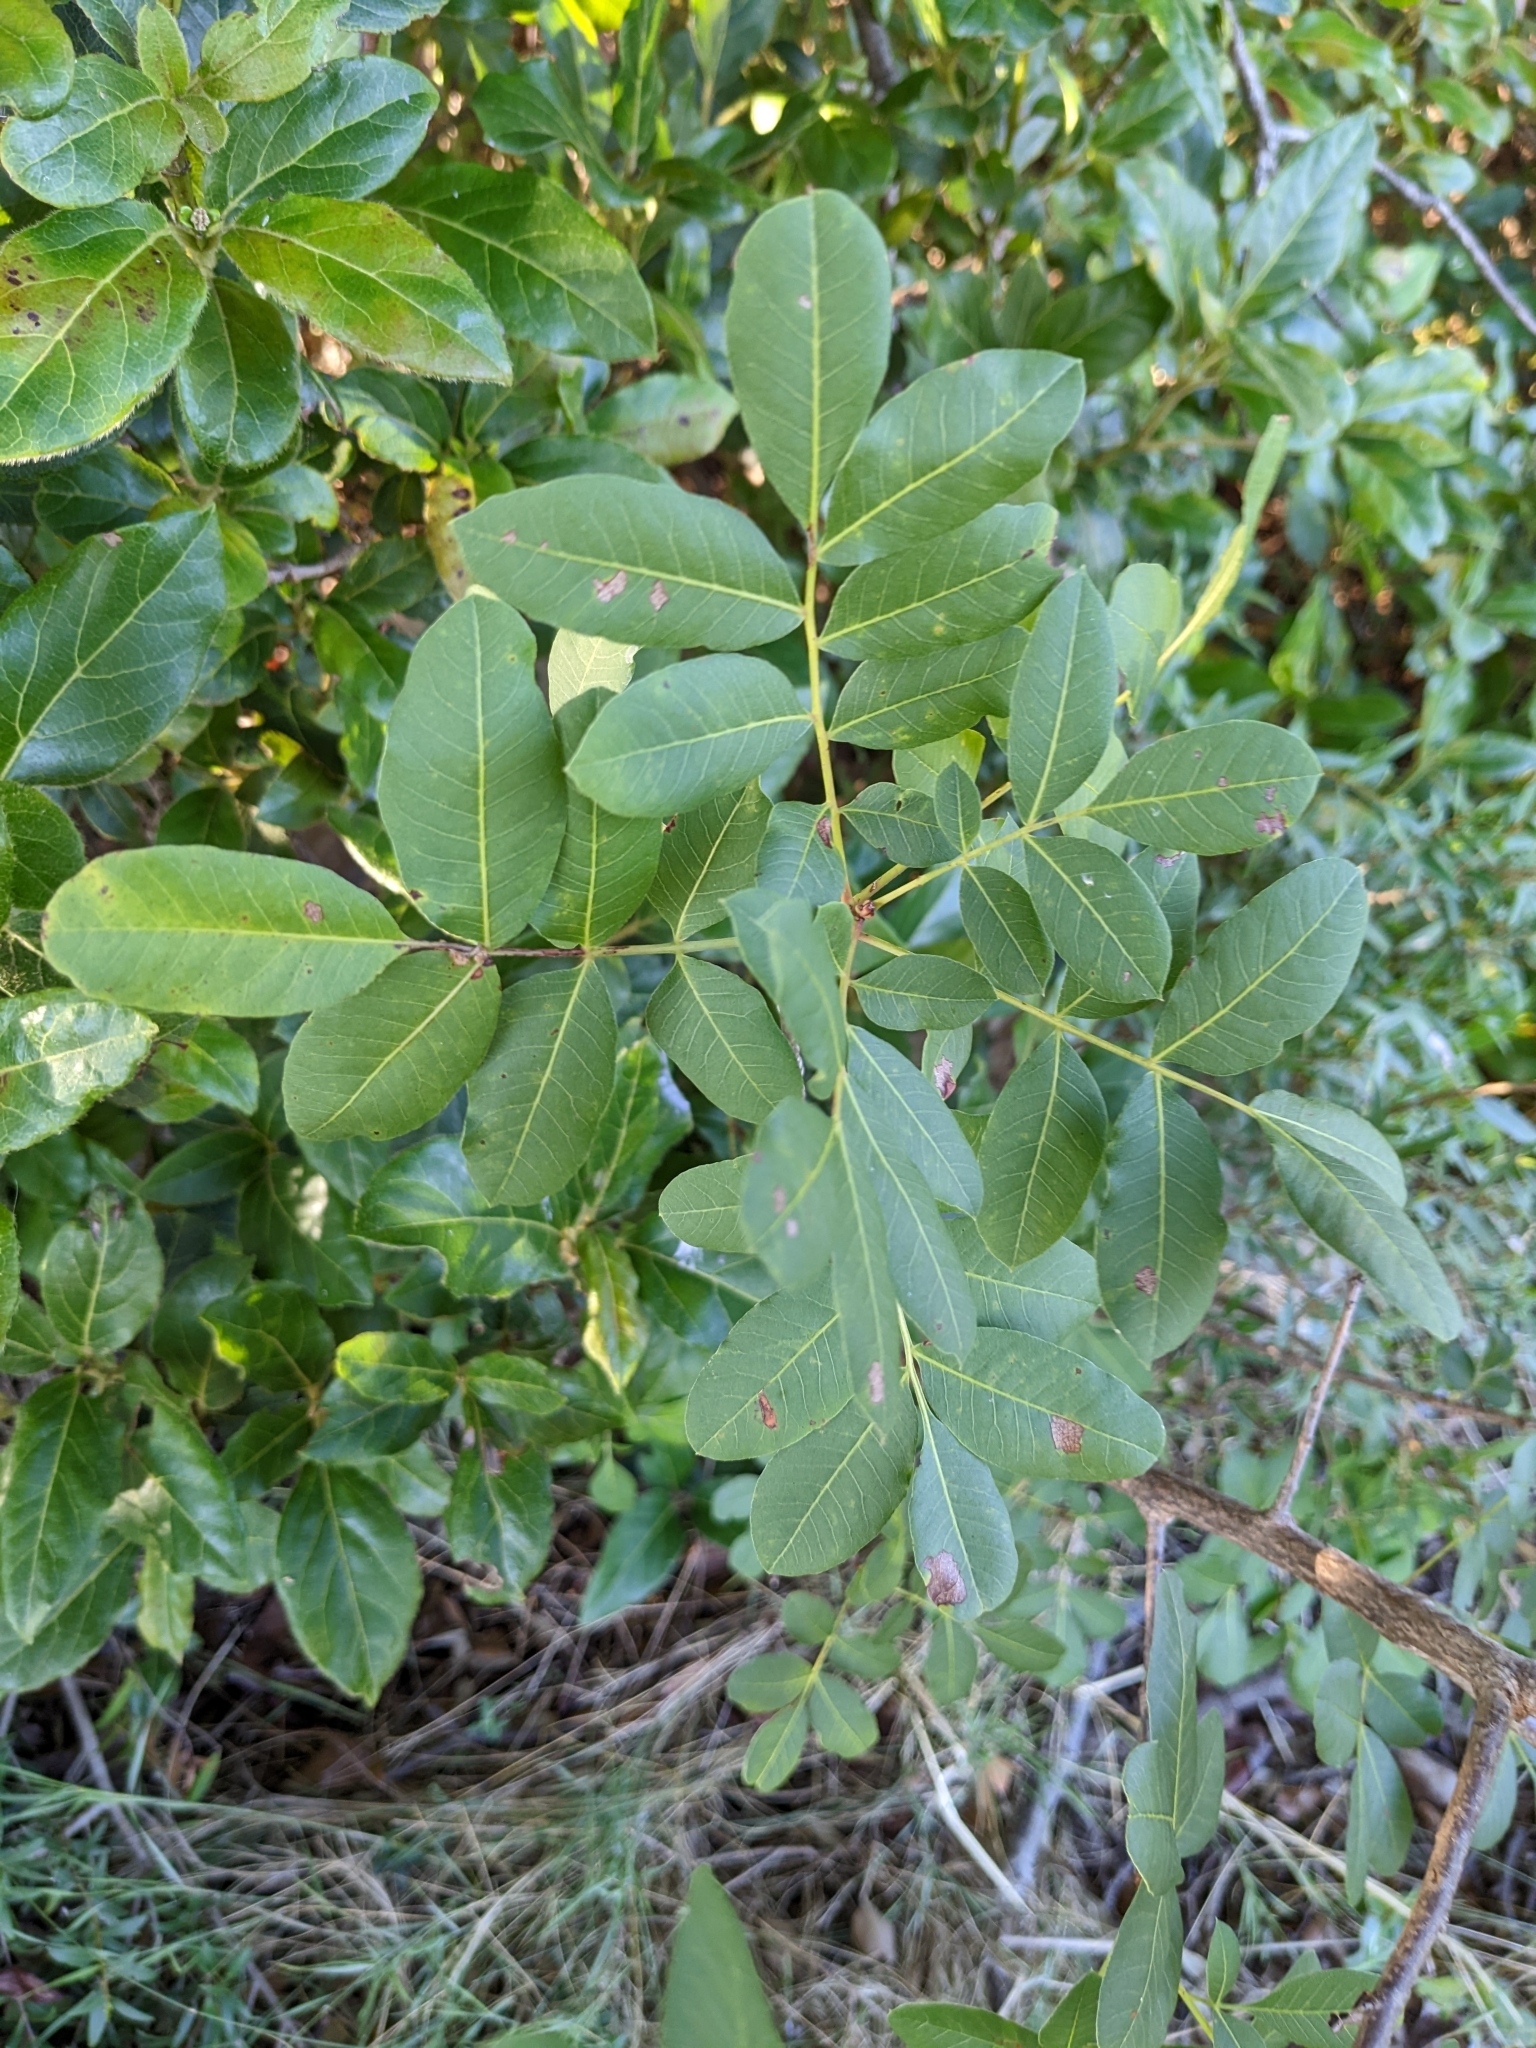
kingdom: Plantae
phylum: Tracheophyta
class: Magnoliopsida
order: Sapindales
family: Anacardiaceae
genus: Pistacia
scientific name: Pistacia terebinthus
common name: Terebinth
